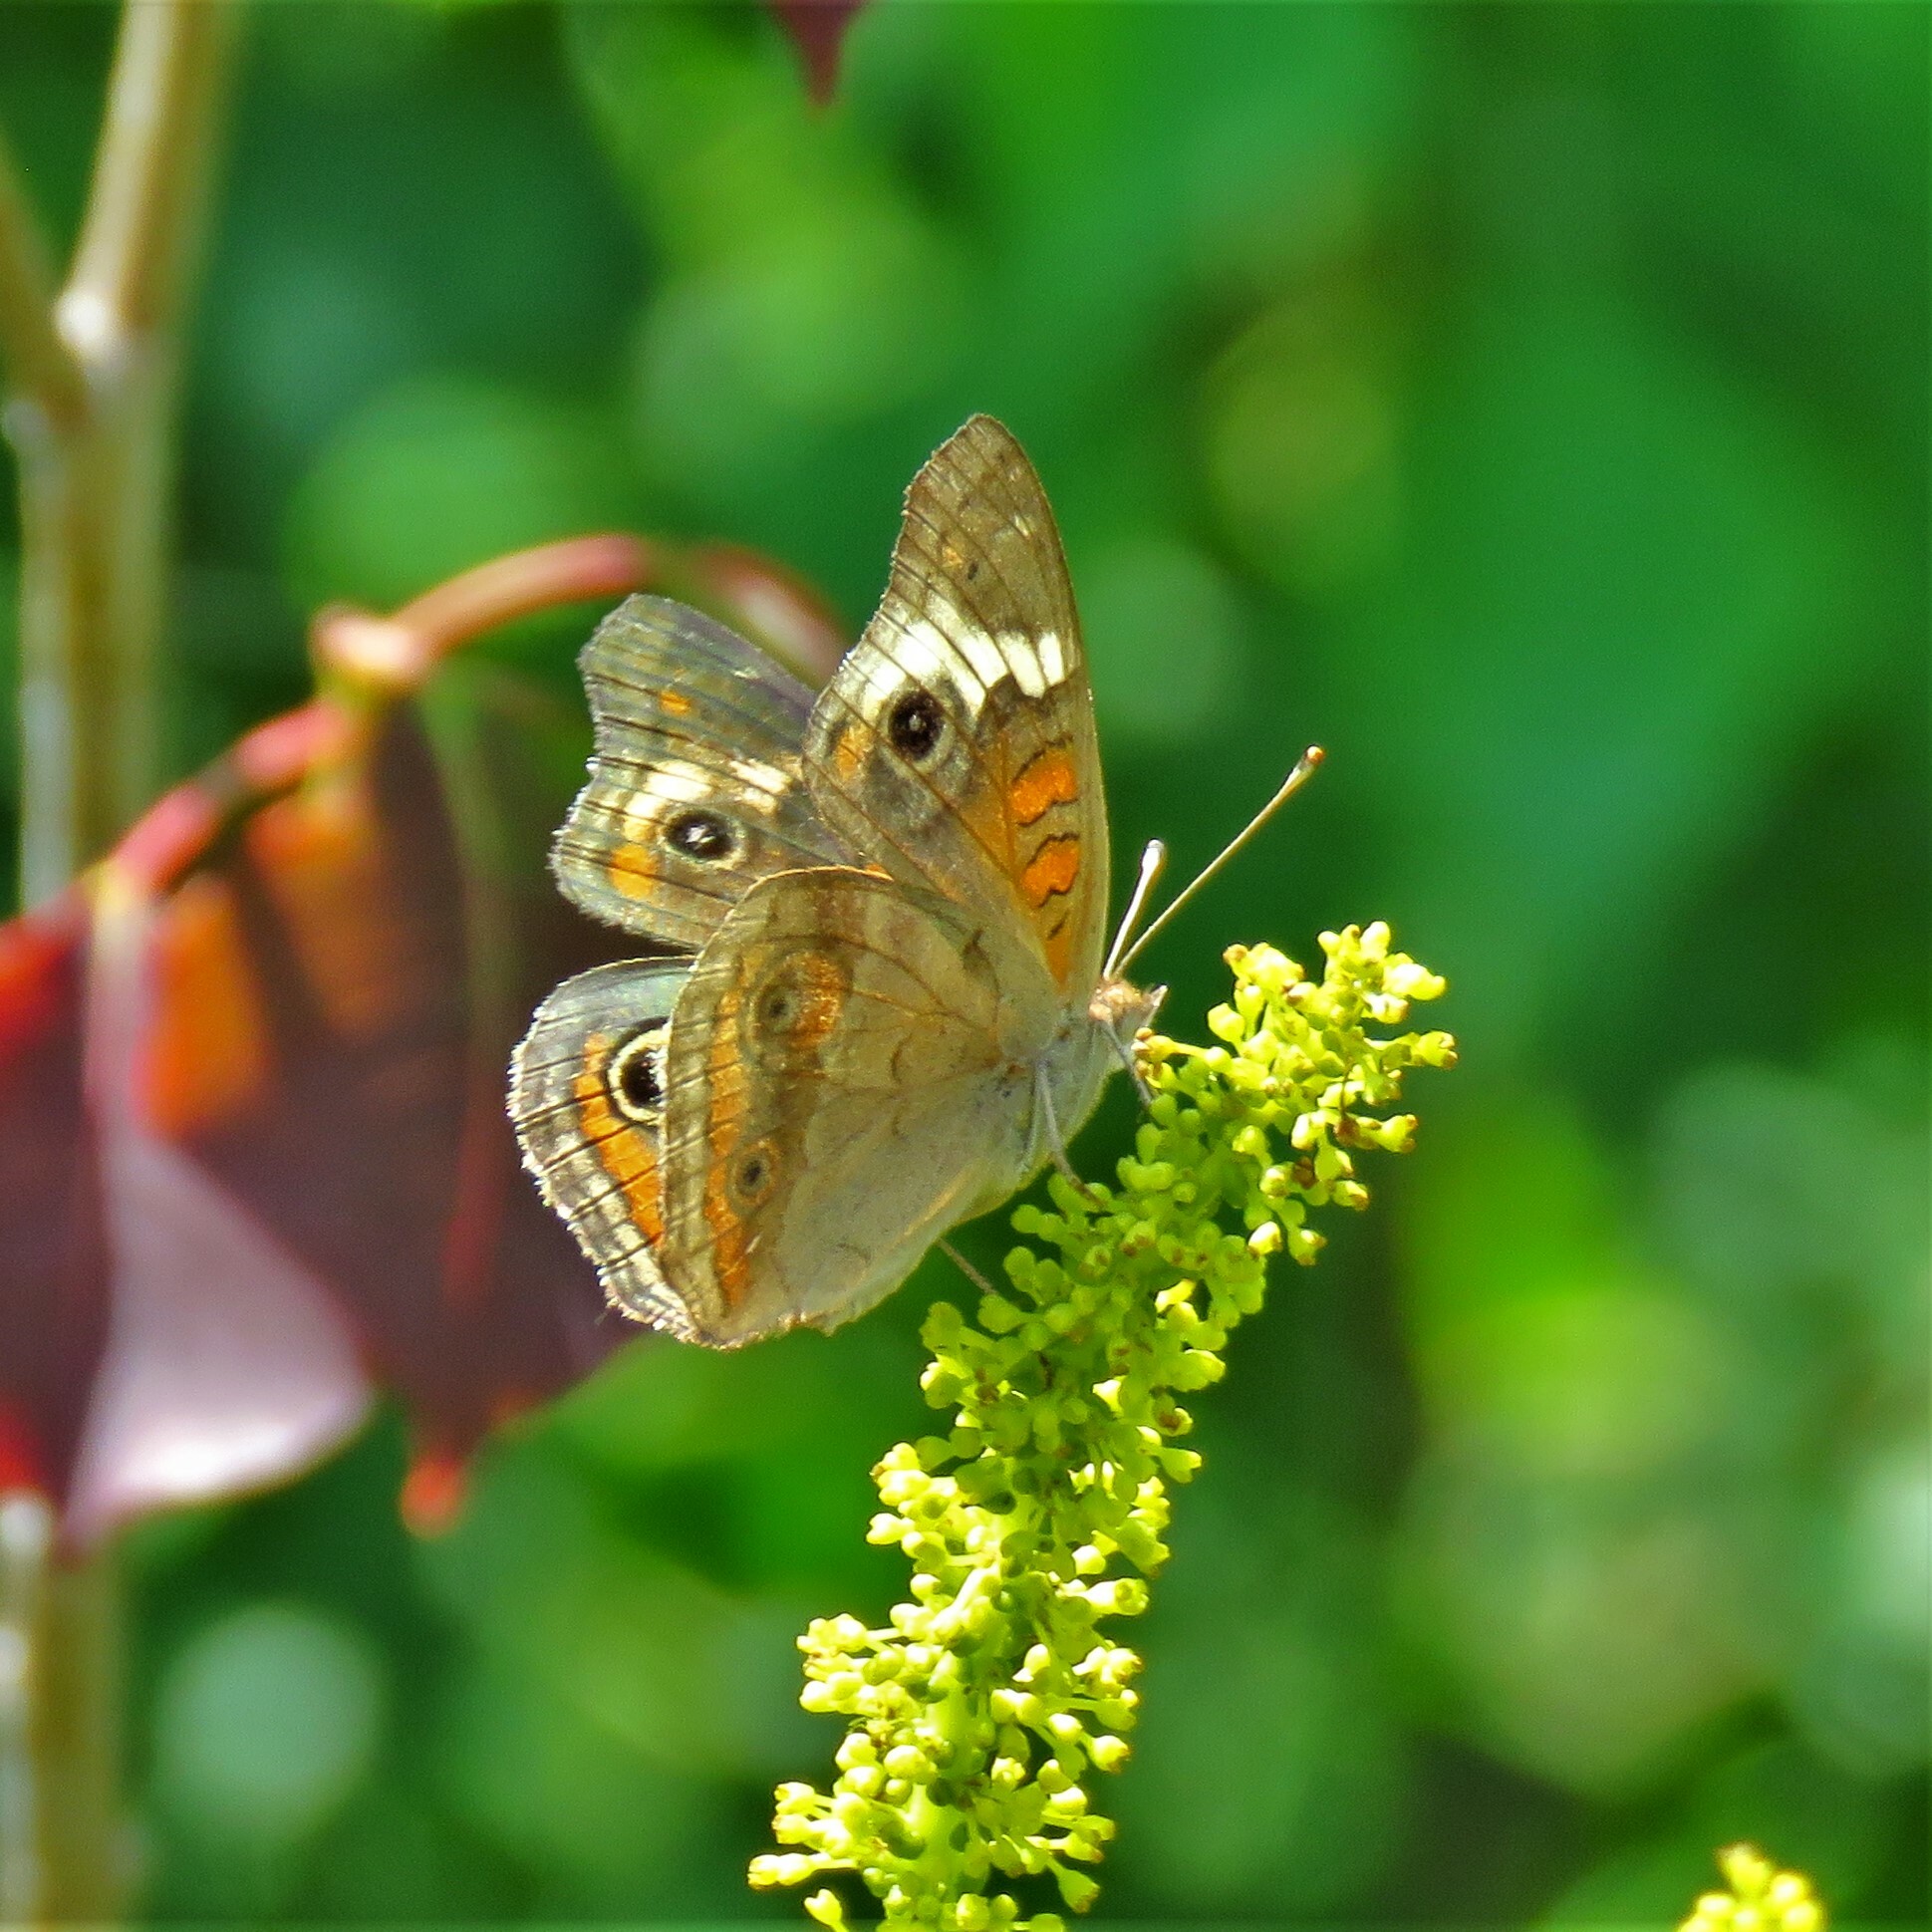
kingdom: Animalia
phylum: Arthropoda
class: Insecta
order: Lepidoptera
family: Nymphalidae
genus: Junonia
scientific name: Junonia coenia
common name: Common buckeye
